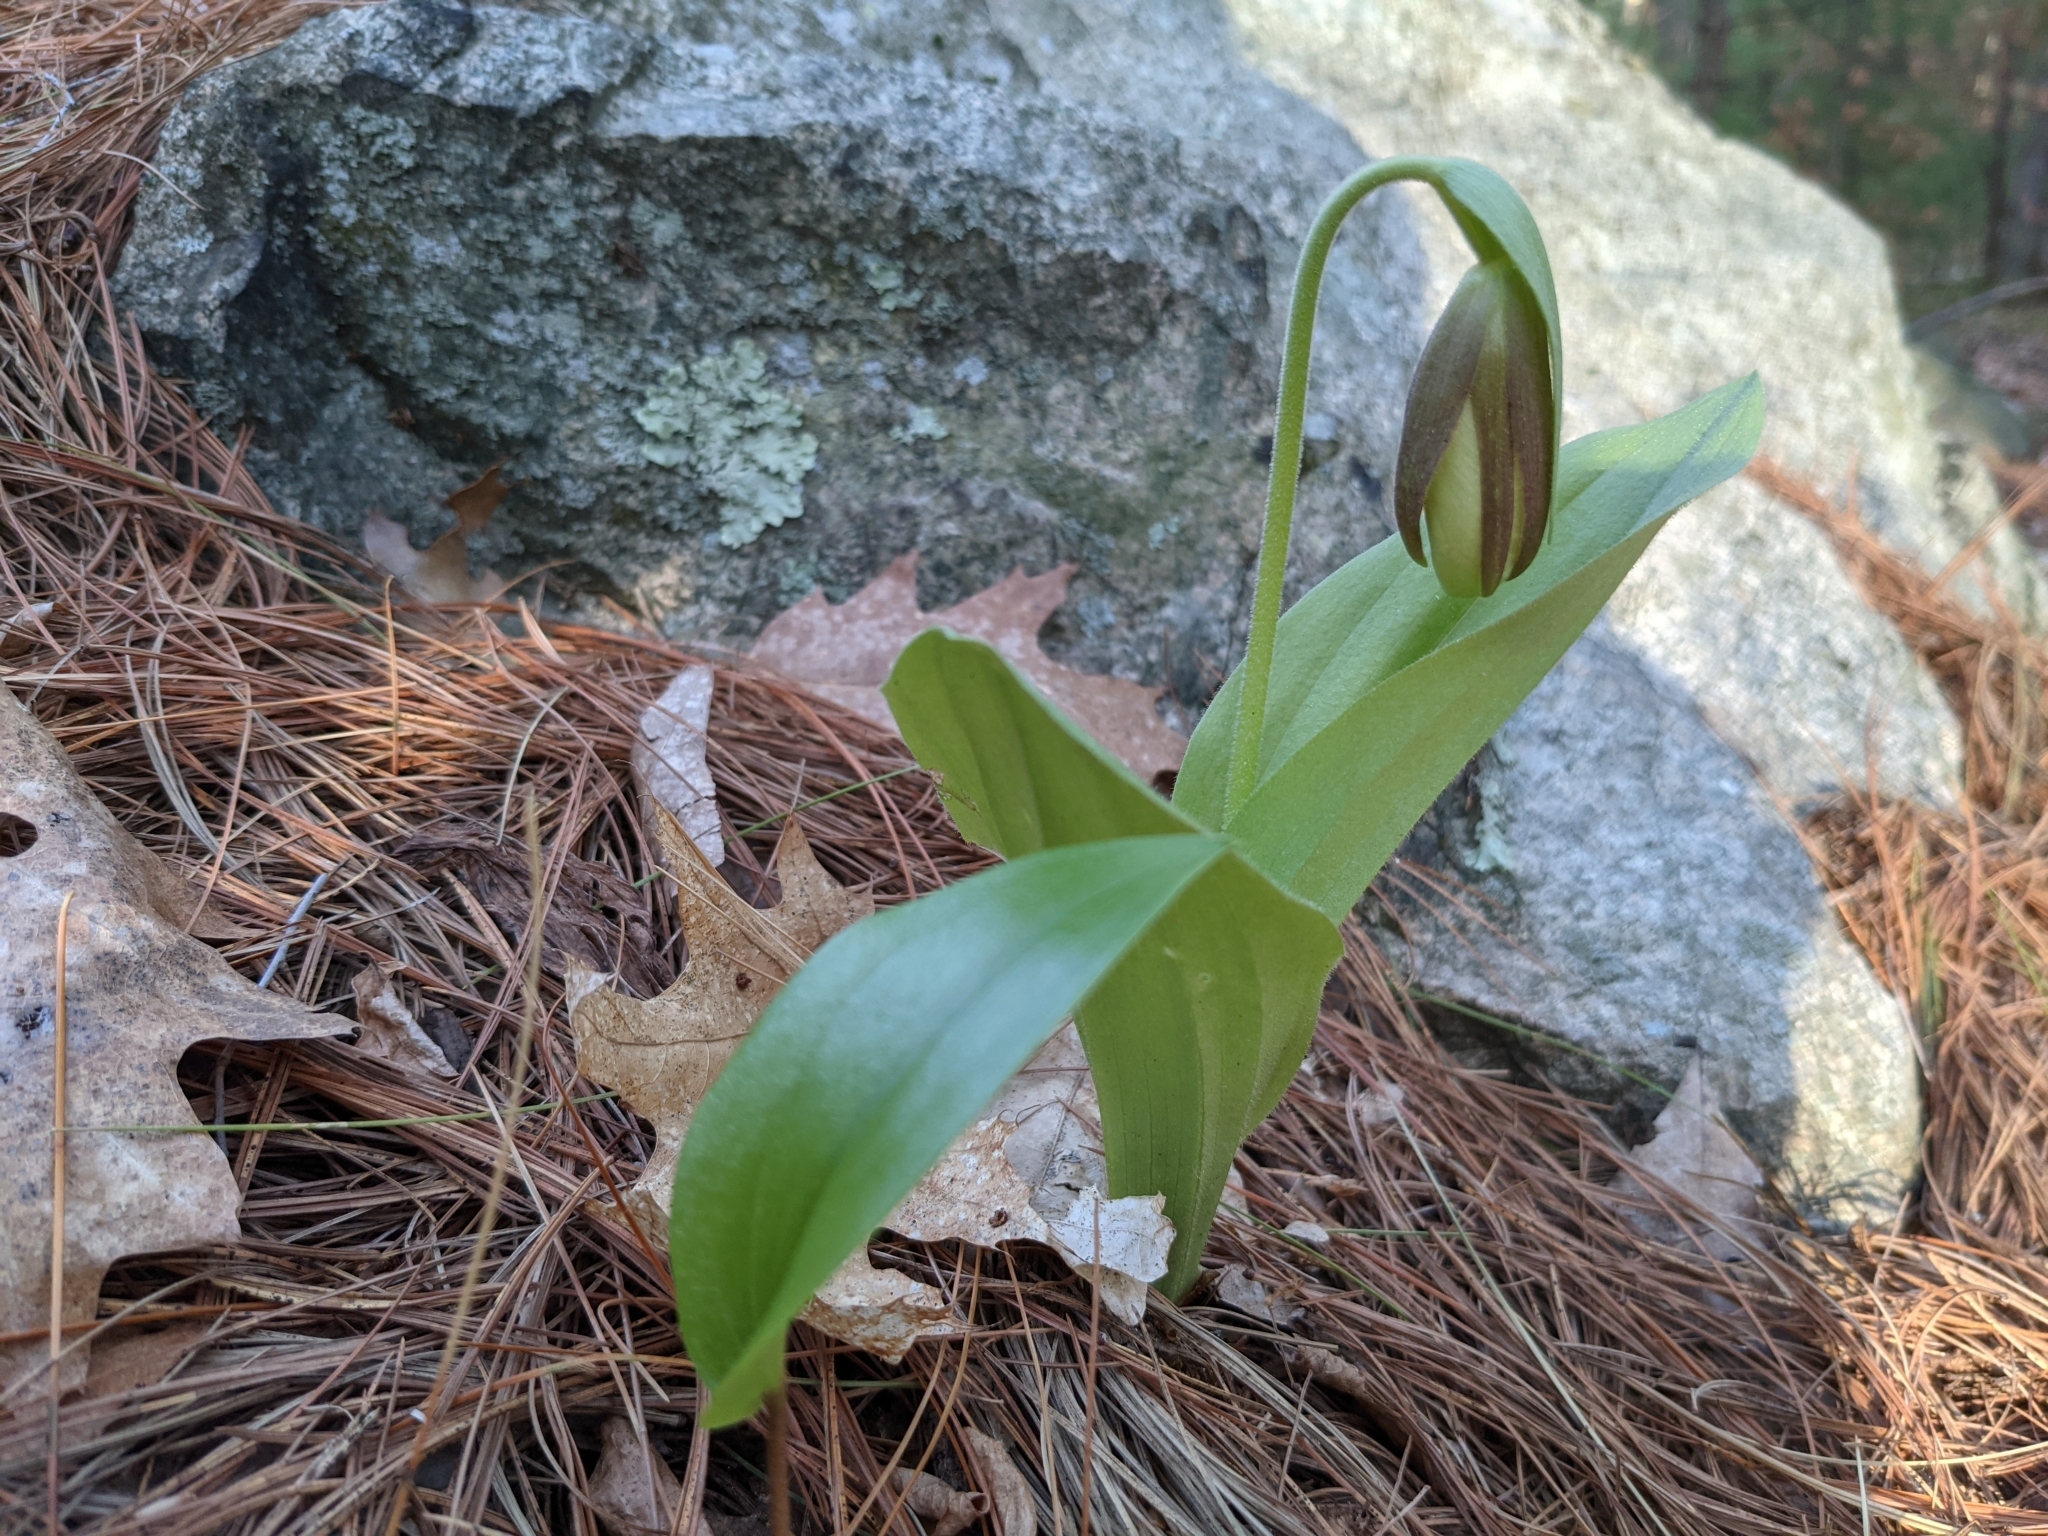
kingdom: Plantae
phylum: Tracheophyta
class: Liliopsida
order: Asparagales
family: Orchidaceae
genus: Cypripedium
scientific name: Cypripedium acaule
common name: Pink lady's-slipper
